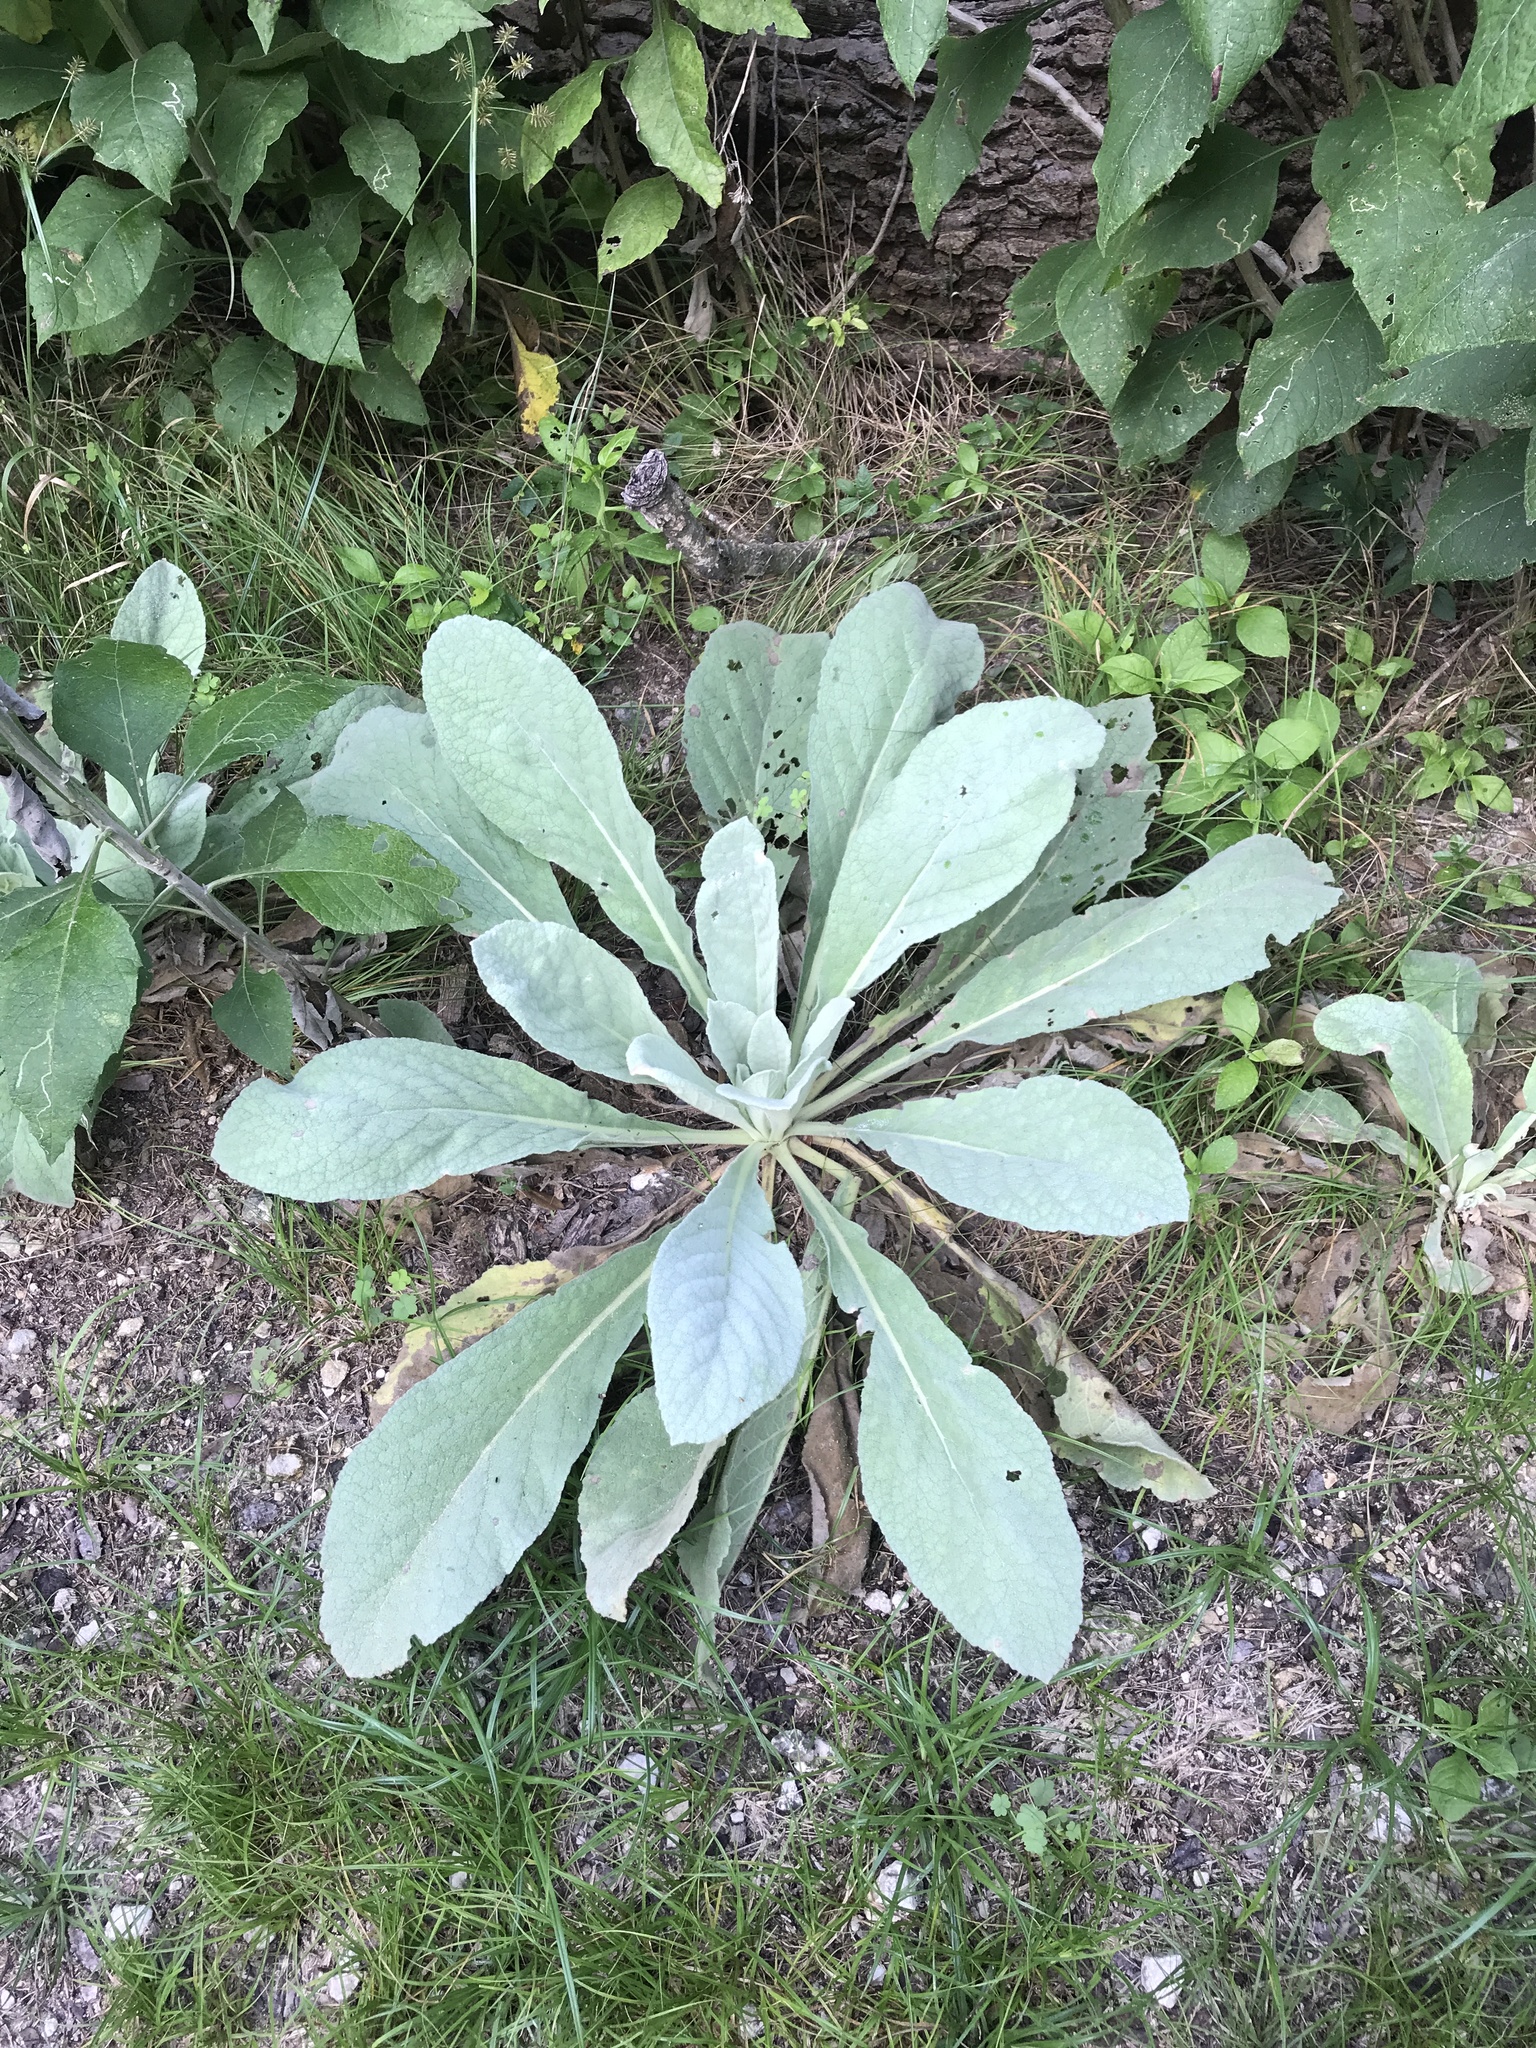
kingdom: Plantae
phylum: Tracheophyta
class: Magnoliopsida
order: Lamiales
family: Scrophulariaceae
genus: Verbascum
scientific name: Verbascum thapsus
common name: Common mullein
